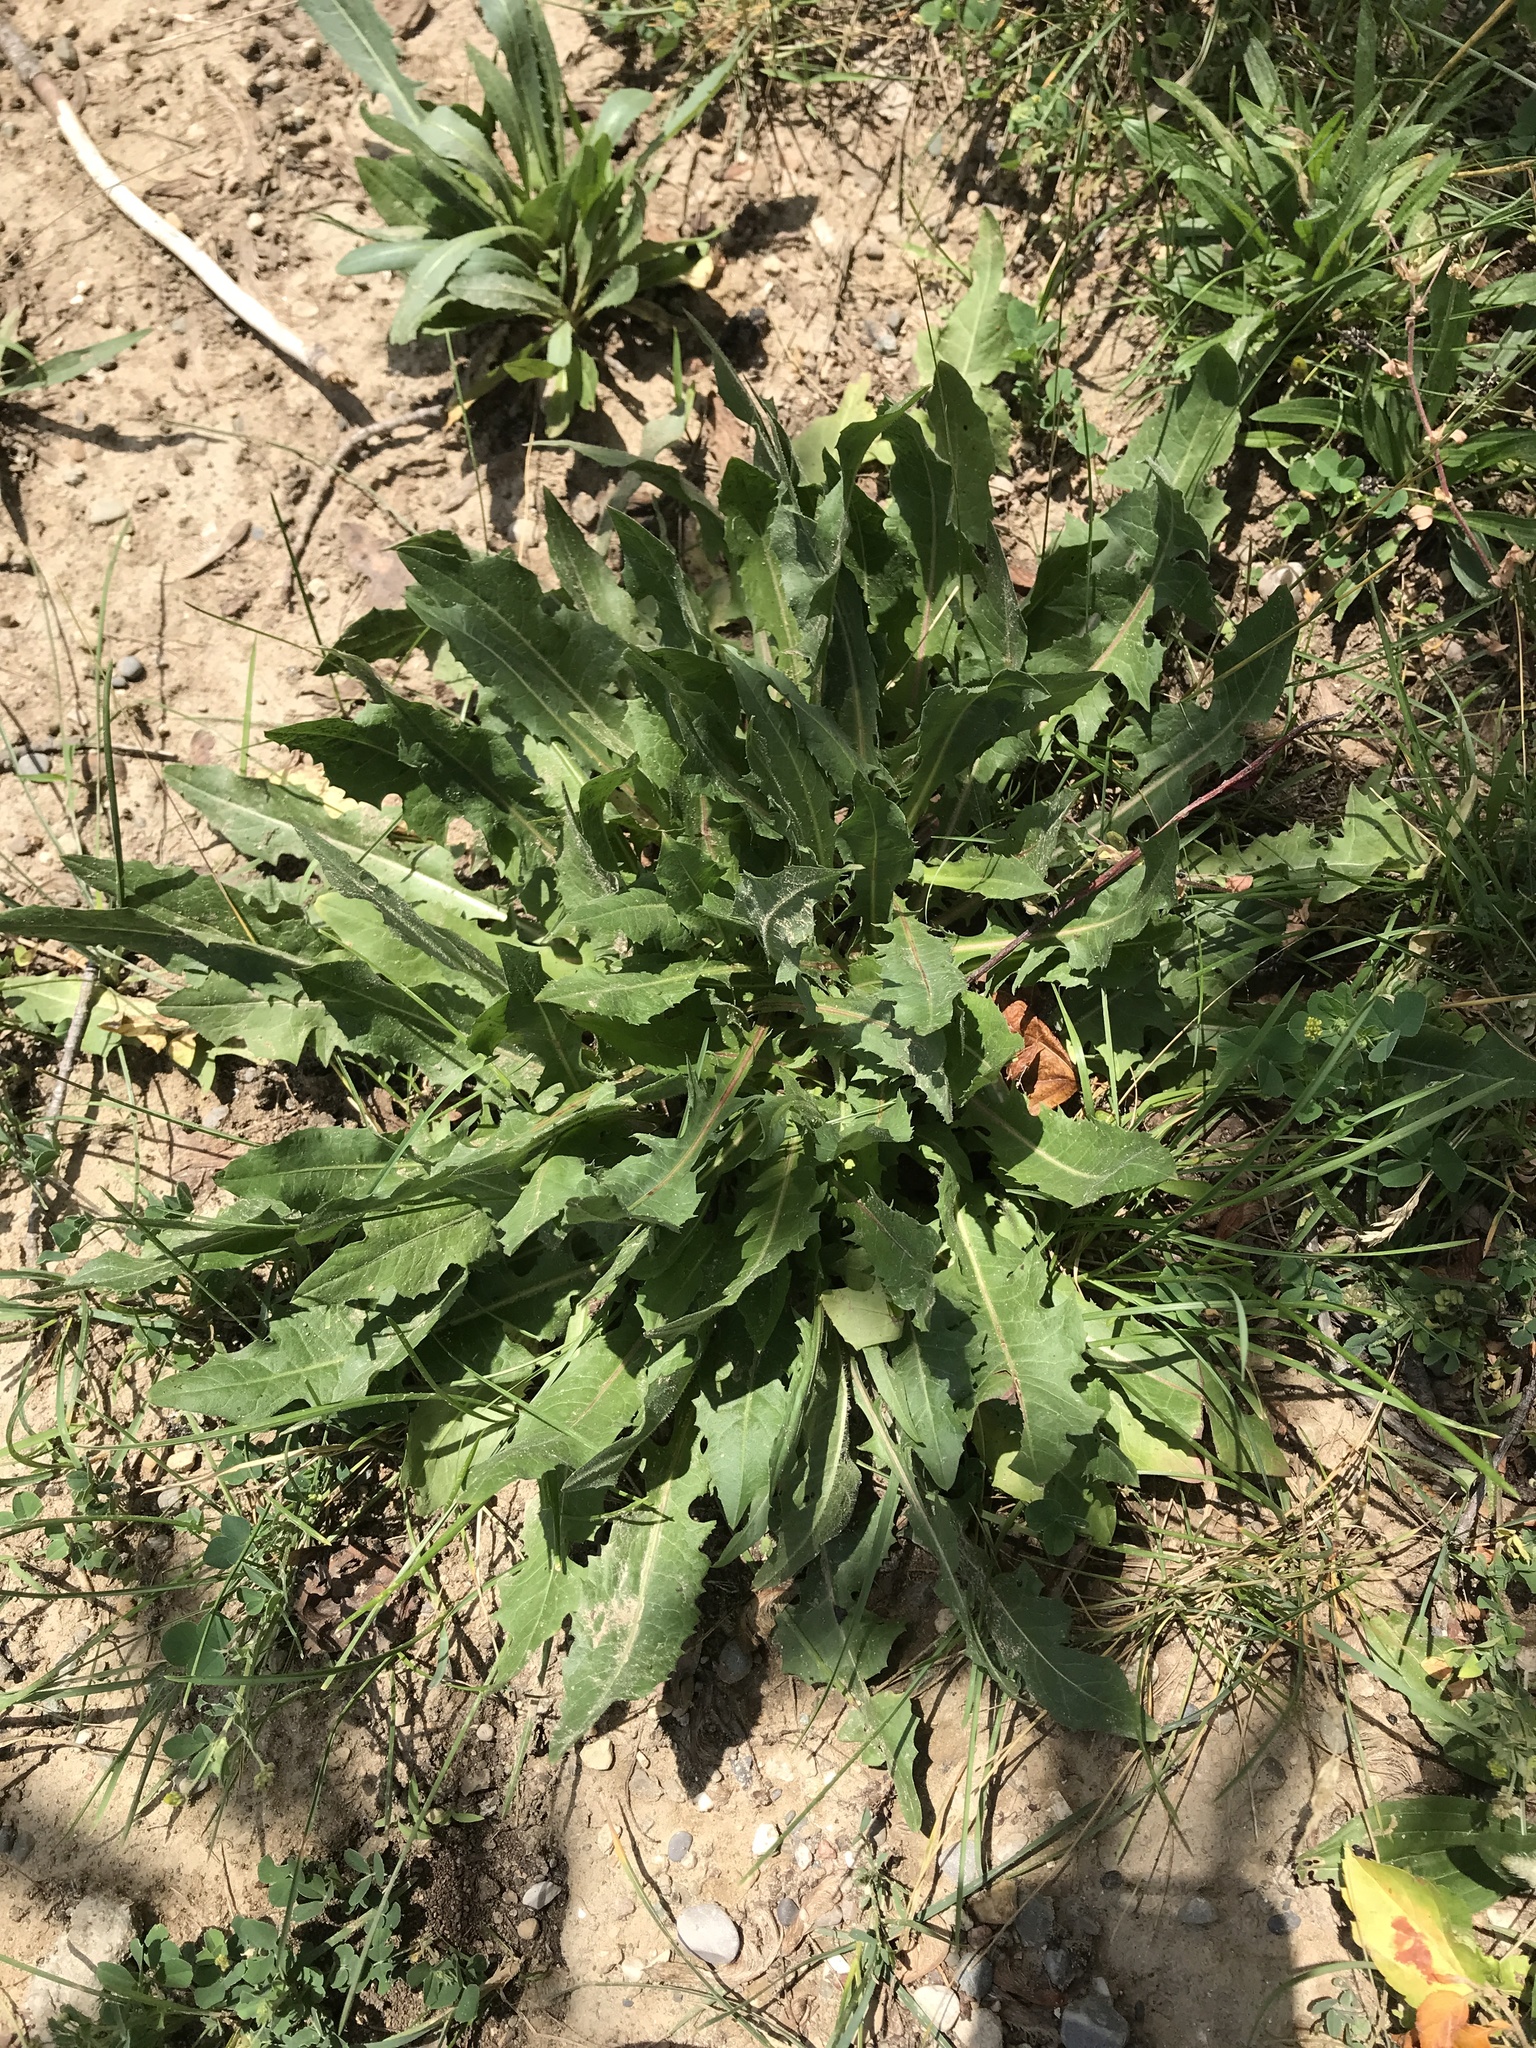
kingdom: Plantae
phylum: Tracheophyta
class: Magnoliopsida
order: Asterales
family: Asteraceae
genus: Taraxacum
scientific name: Taraxacum officinale
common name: Common dandelion
